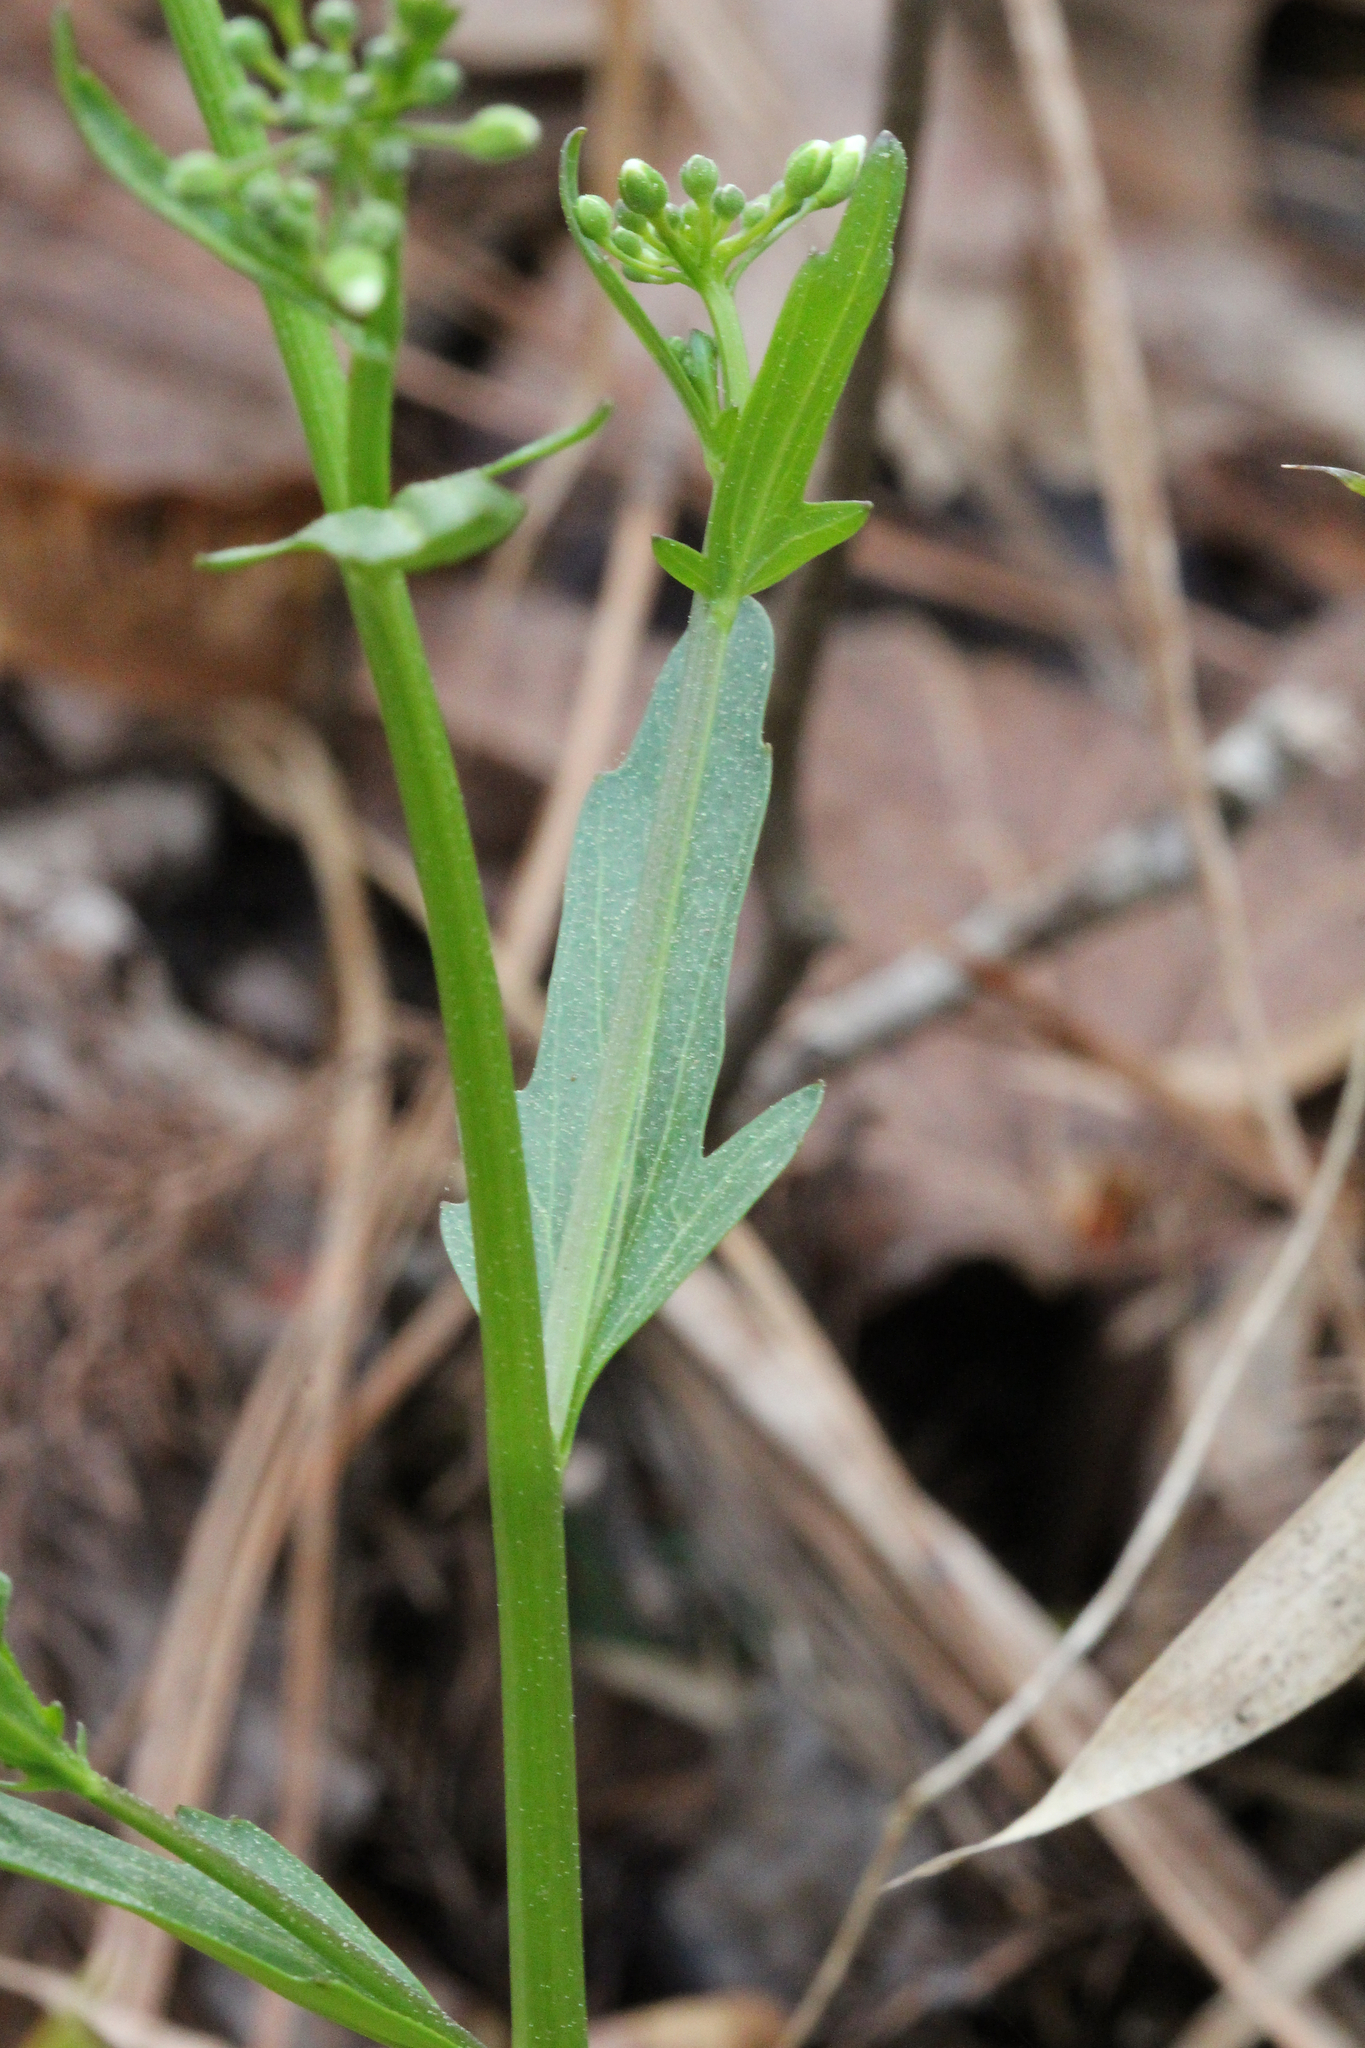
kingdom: Plantae
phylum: Tracheophyta
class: Magnoliopsida
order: Brassicales
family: Brassicaceae
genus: Cardamine
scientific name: Cardamine bulbosa
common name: Spring cress
